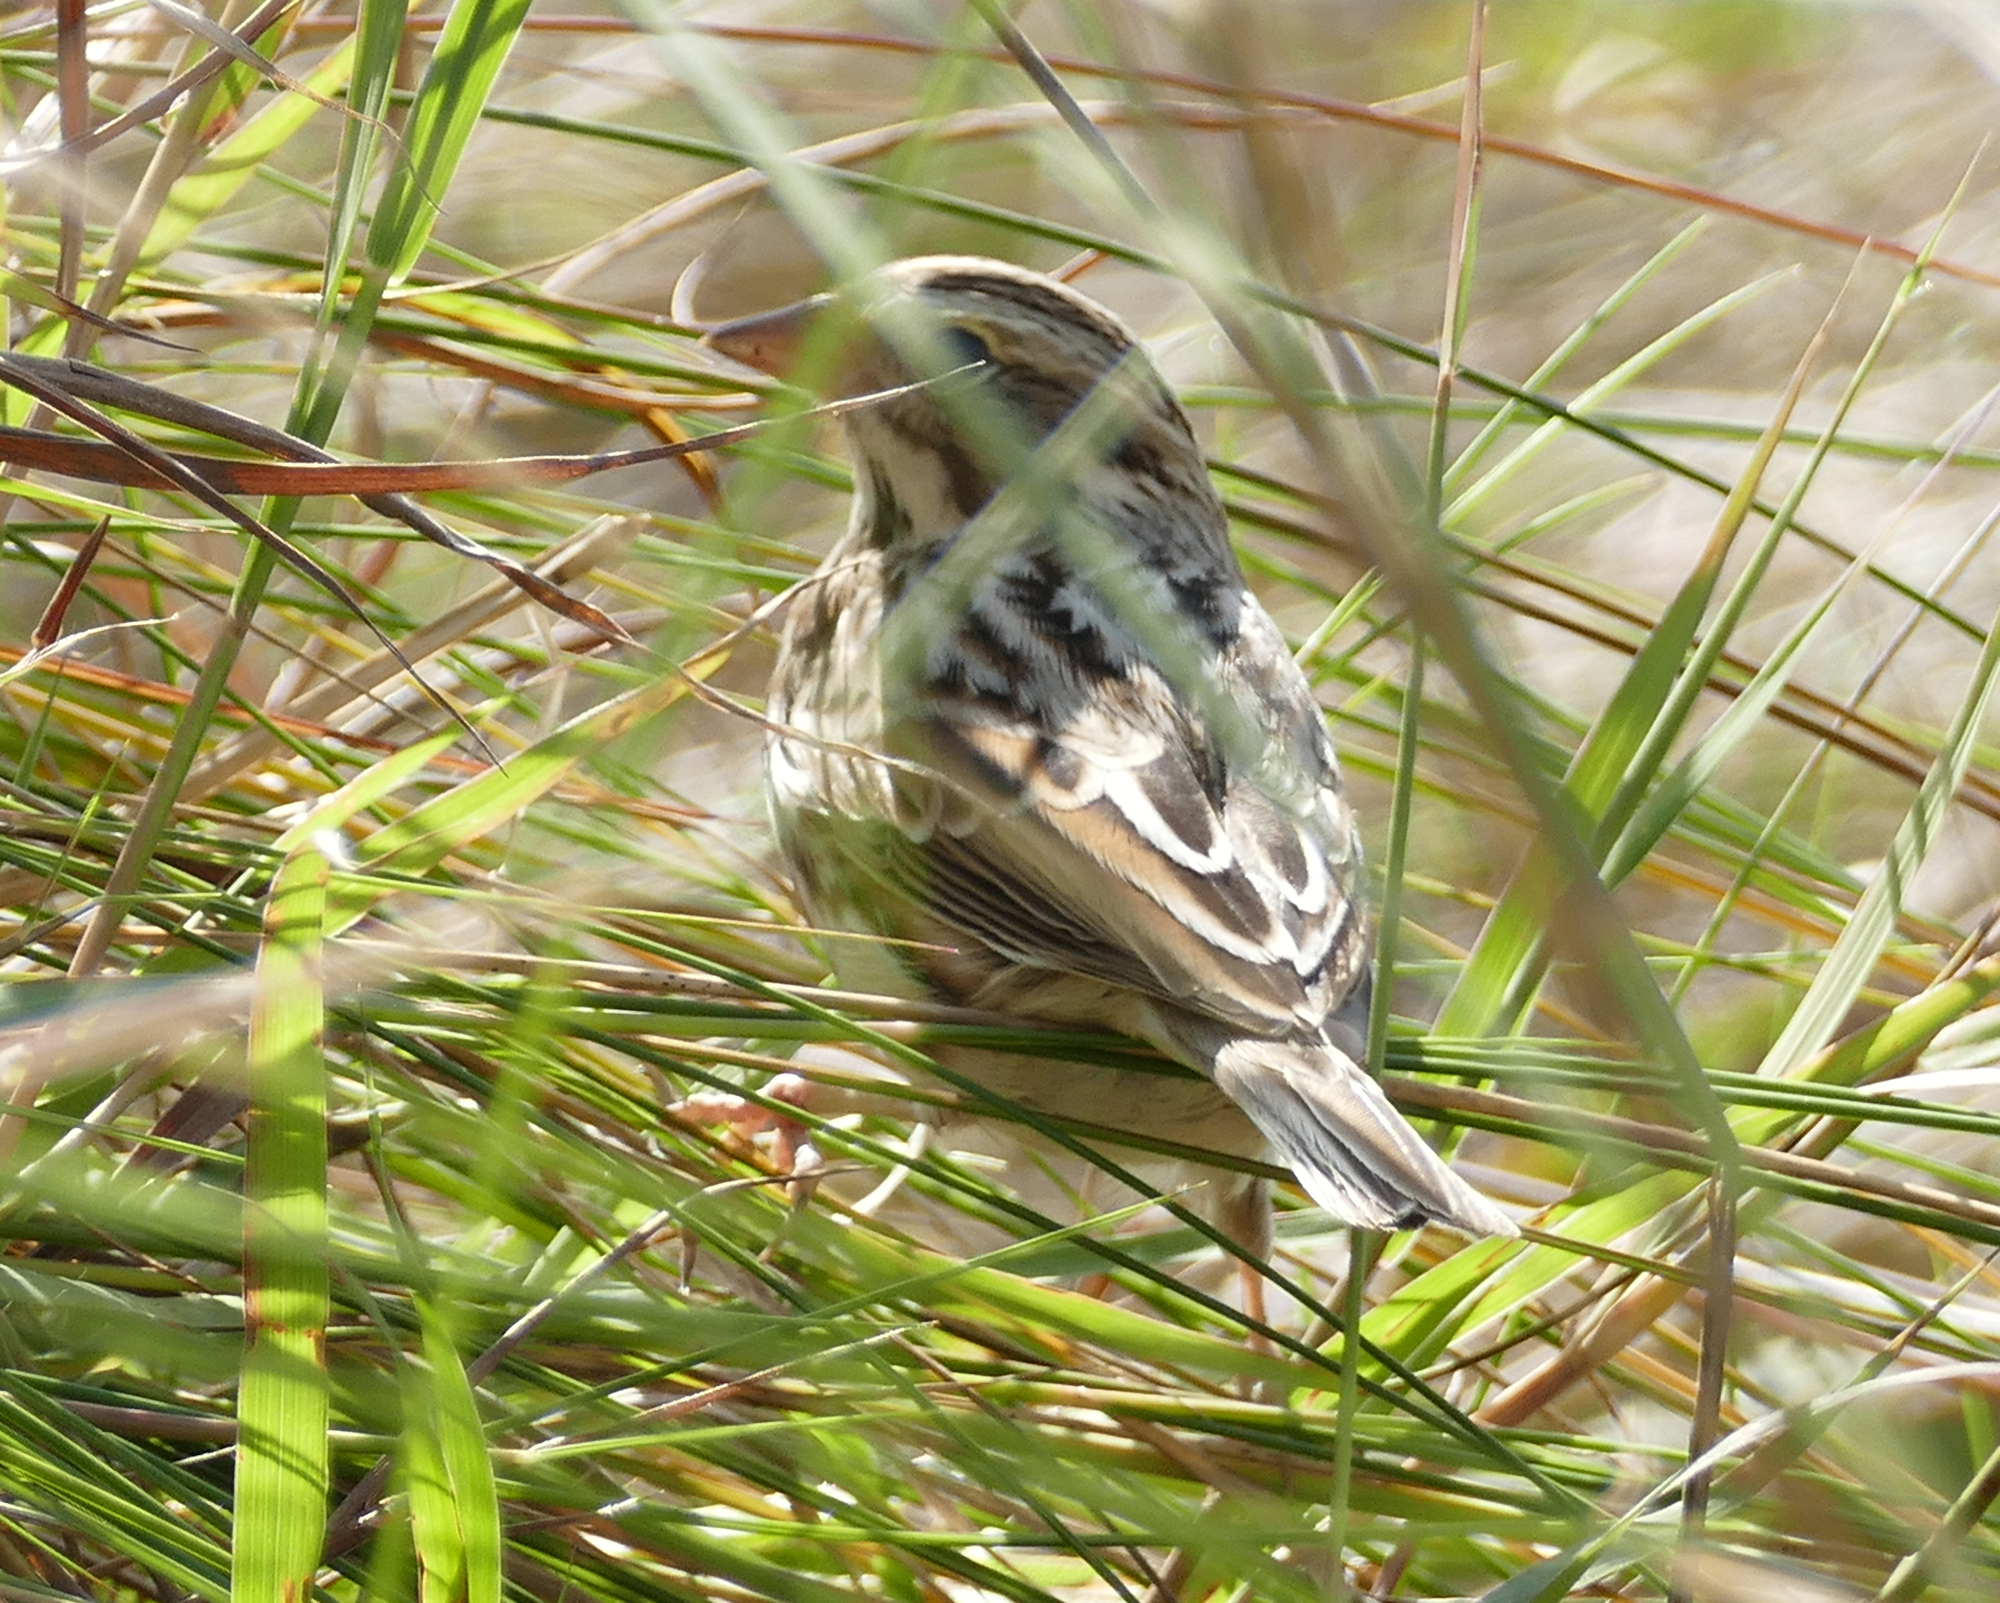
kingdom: Animalia
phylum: Chordata
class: Aves
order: Passeriformes
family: Passerellidae
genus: Passerculus
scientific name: Passerculus sandwichensis
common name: Savannah sparrow
